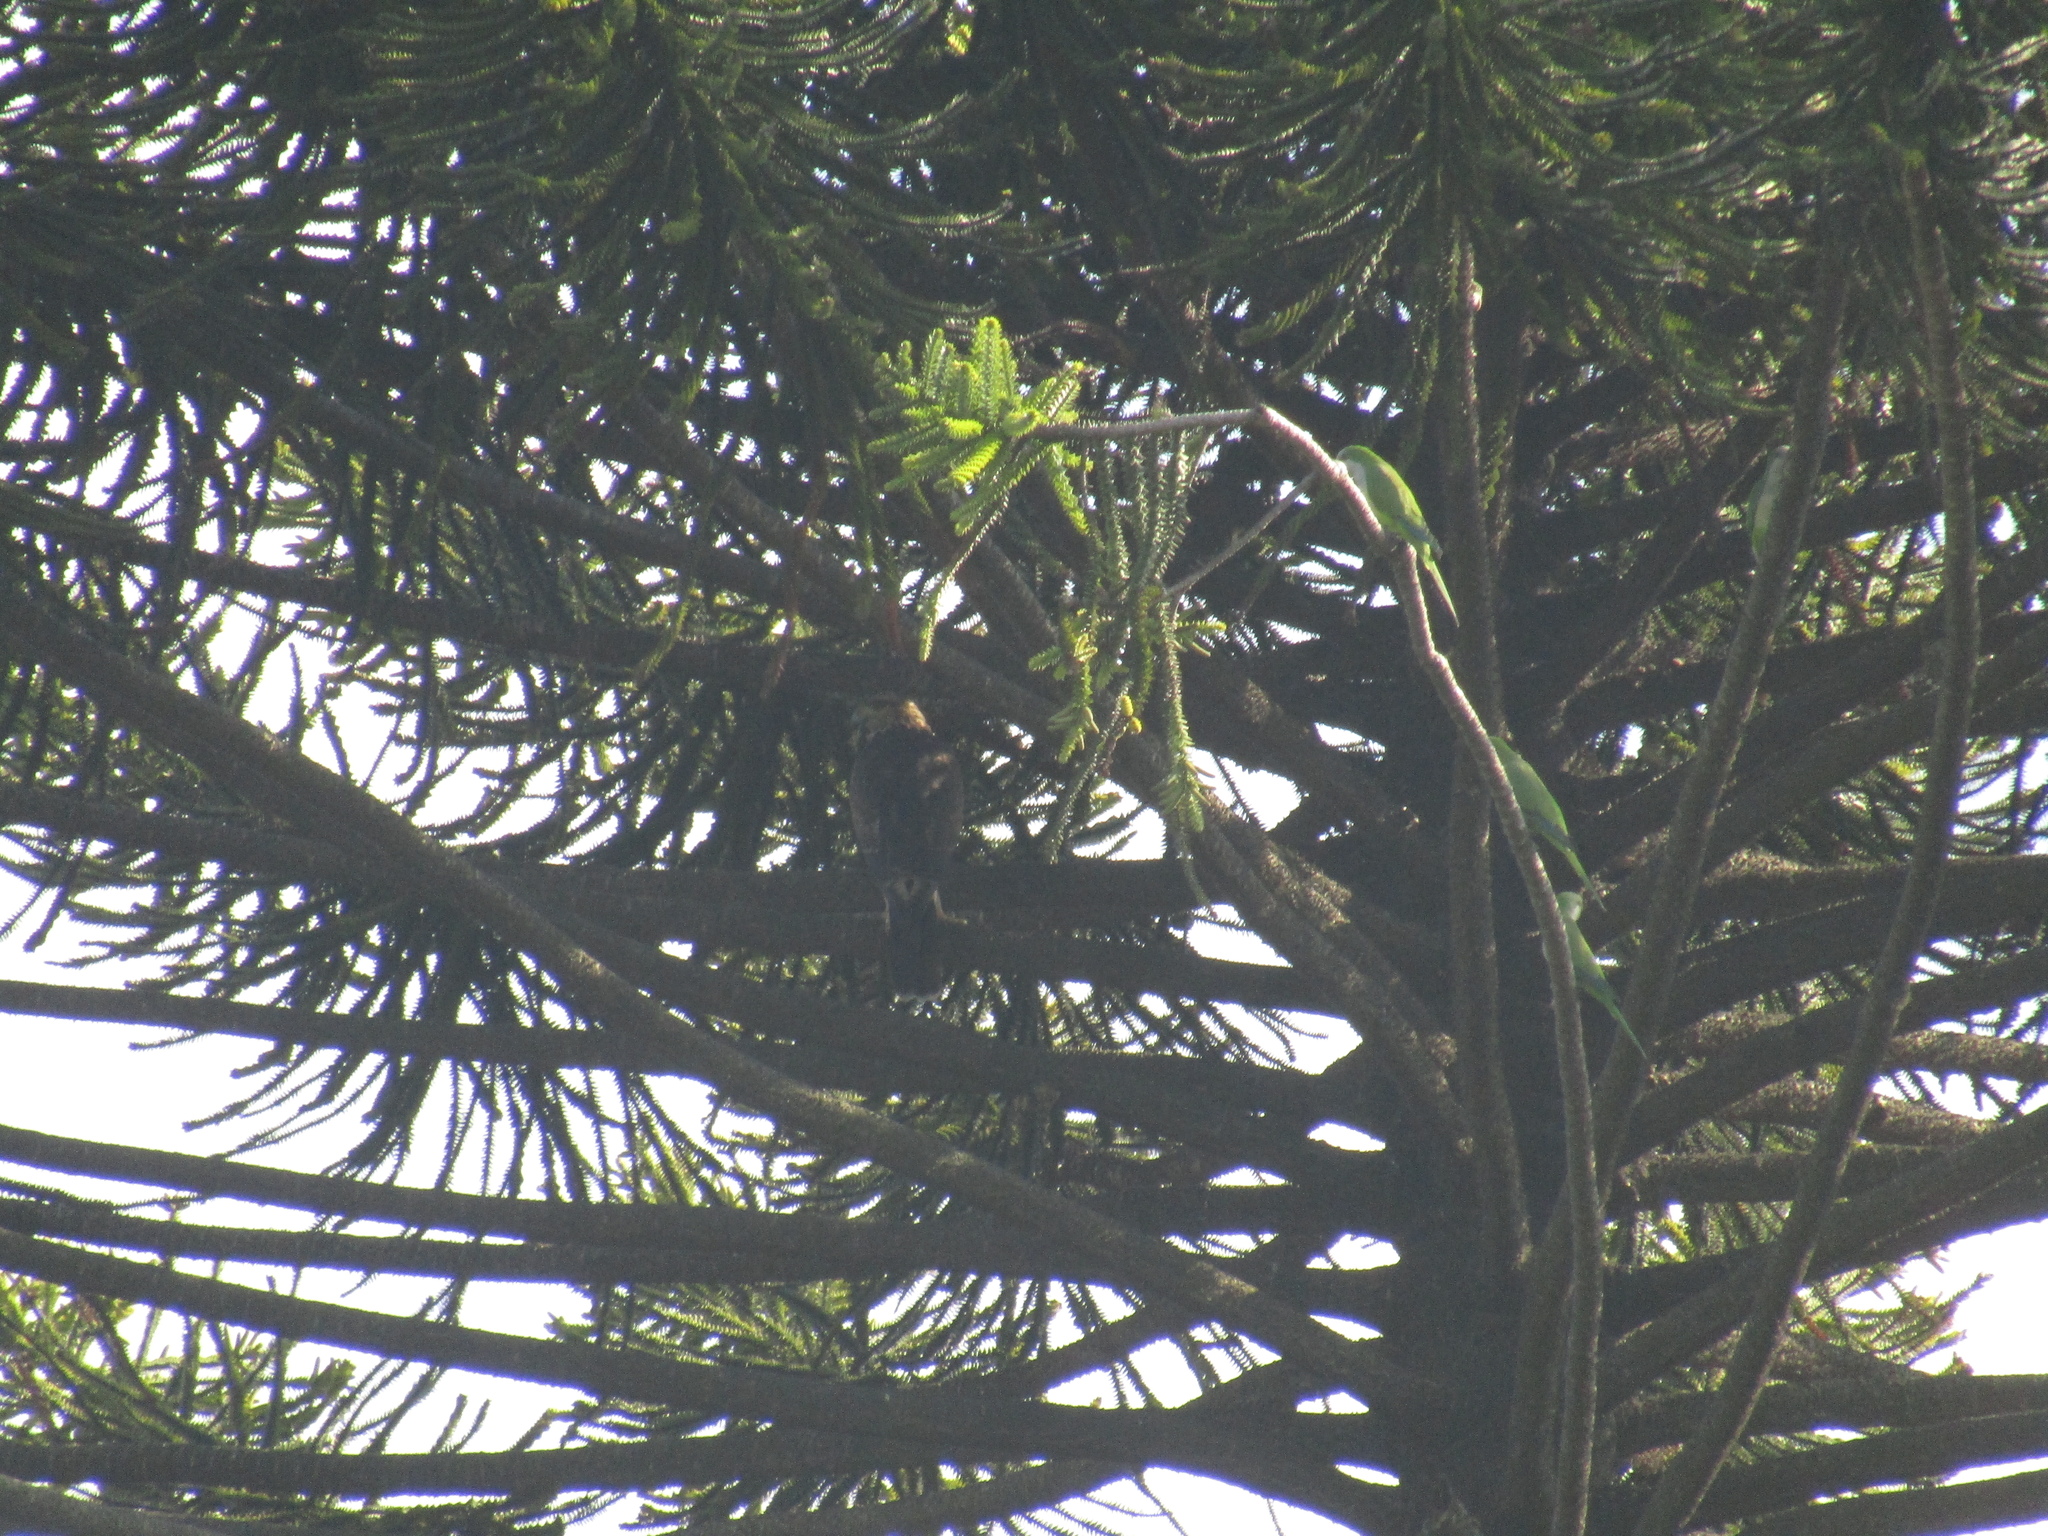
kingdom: Animalia
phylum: Chordata
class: Aves
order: Accipitriformes
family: Accipitridae
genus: Parabuteo
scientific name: Parabuteo unicinctus
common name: Harris's hawk
